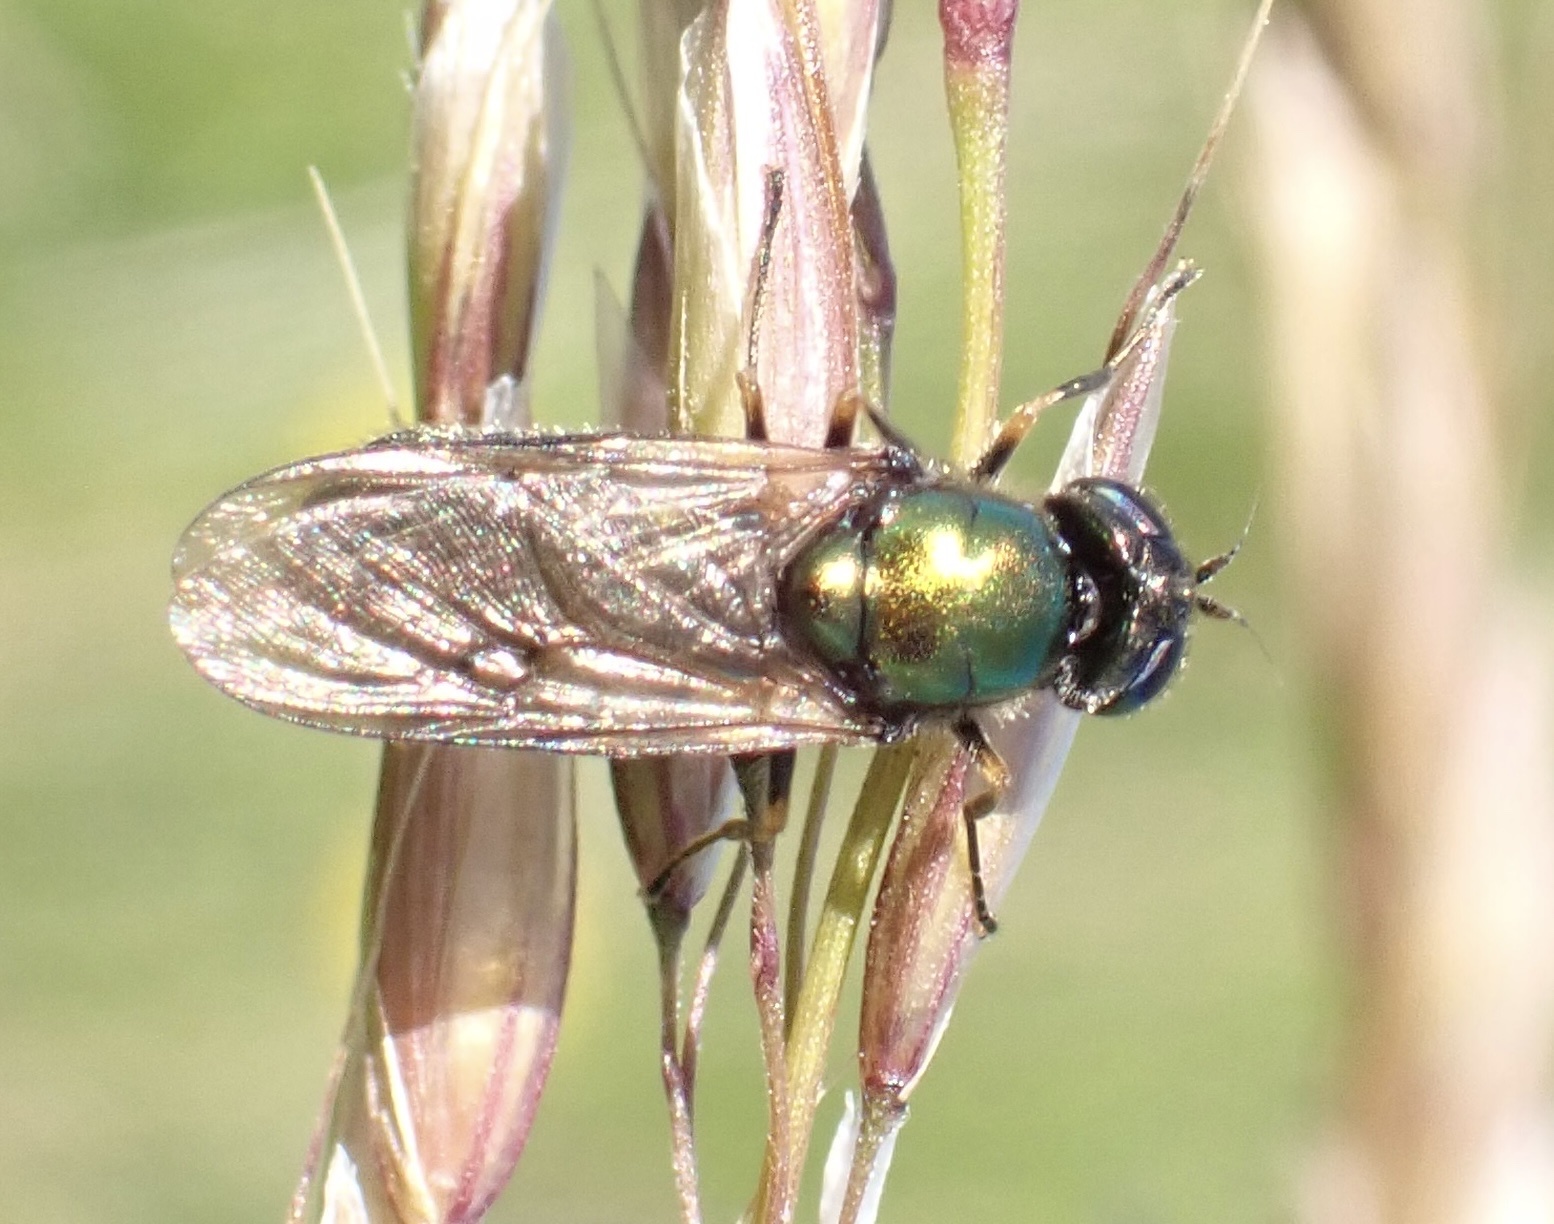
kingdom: Animalia
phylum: Arthropoda
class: Insecta
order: Diptera
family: Stratiomyidae
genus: Chloromyia
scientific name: Chloromyia formosa
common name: Soldier fly
